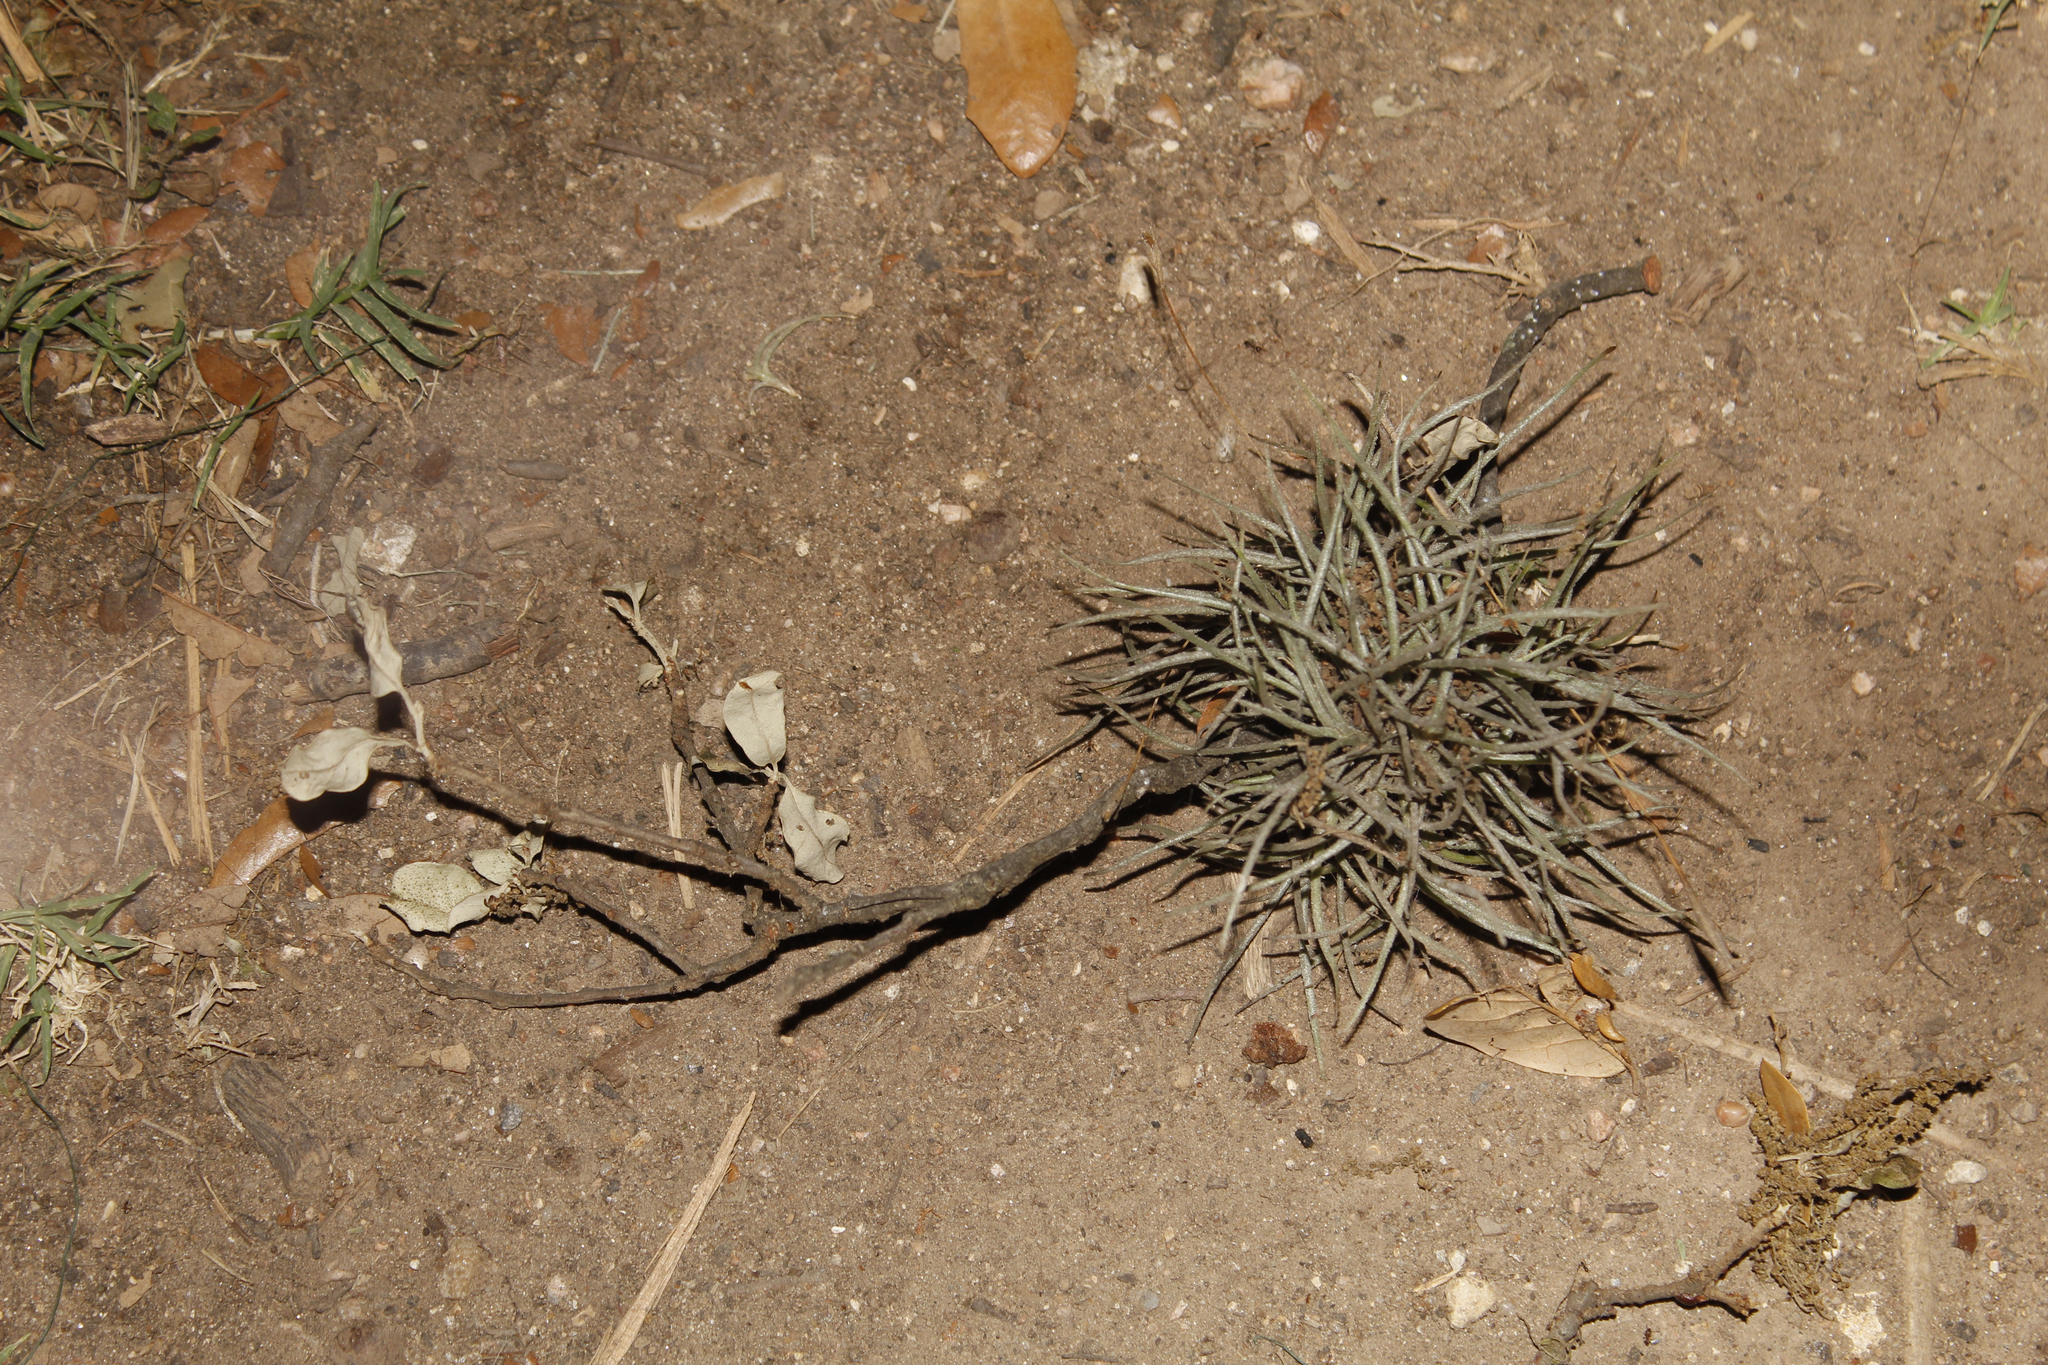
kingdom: Plantae
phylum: Tracheophyta
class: Liliopsida
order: Poales
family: Bromeliaceae
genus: Tillandsia
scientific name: Tillandsia recurvata
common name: Small ballmoss
